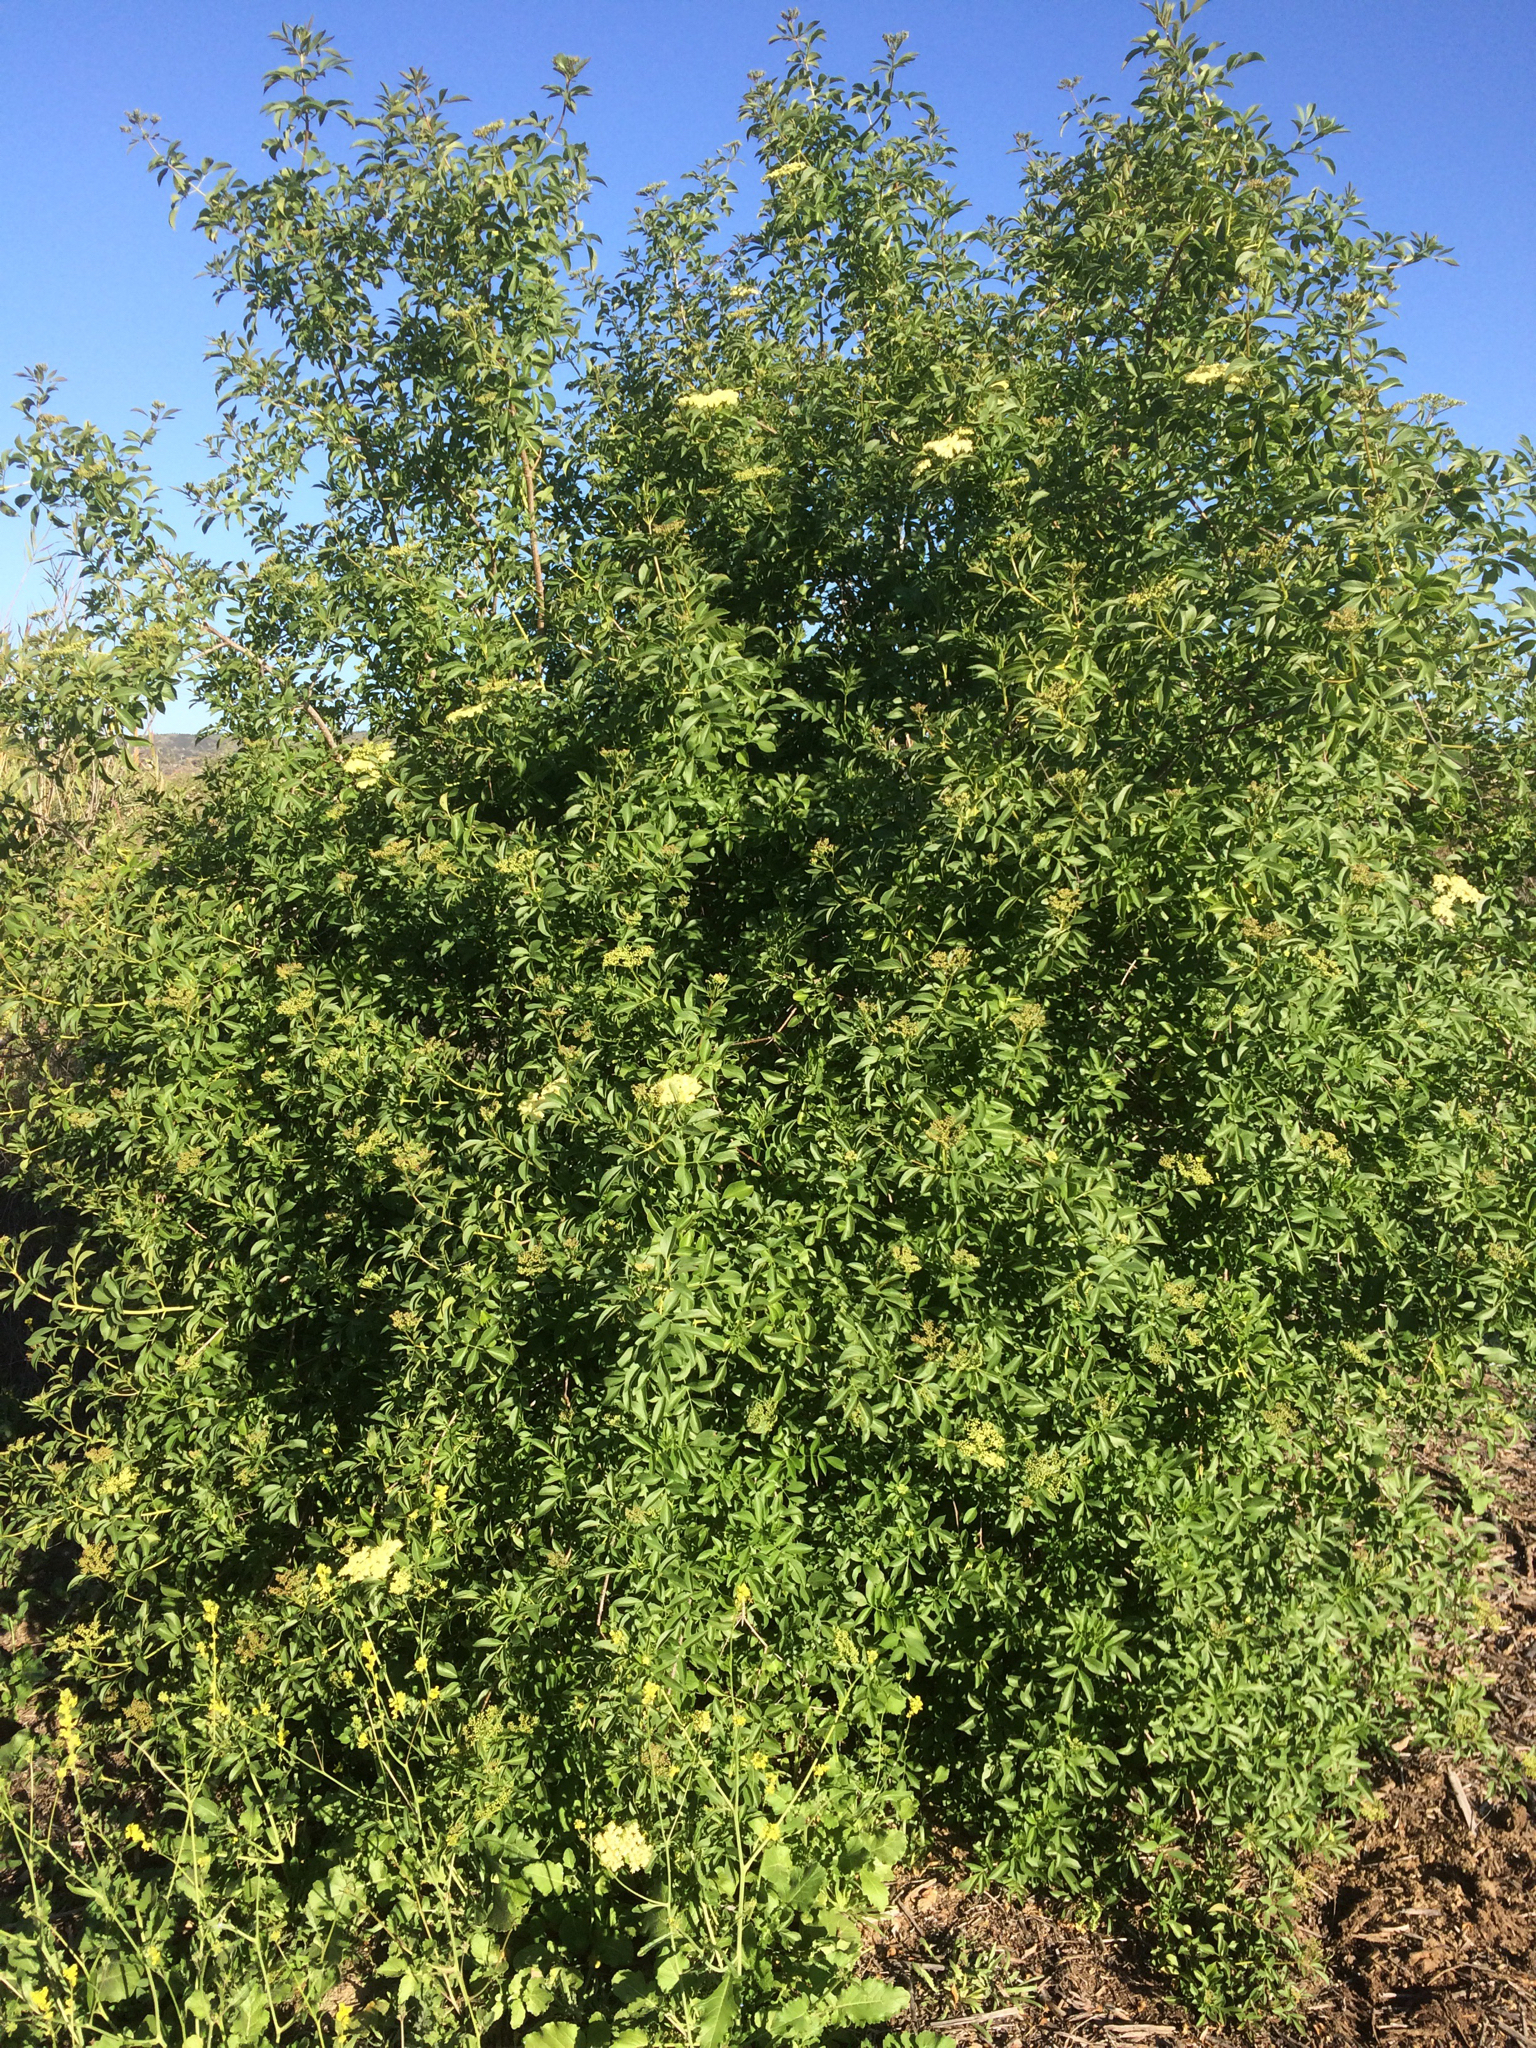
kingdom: Plantae
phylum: Tracheophyta
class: Magnoliopsida
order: Dipsacales
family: Viburnaceae
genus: Sambucus
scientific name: Sambucus cerulea
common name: Blue elder
